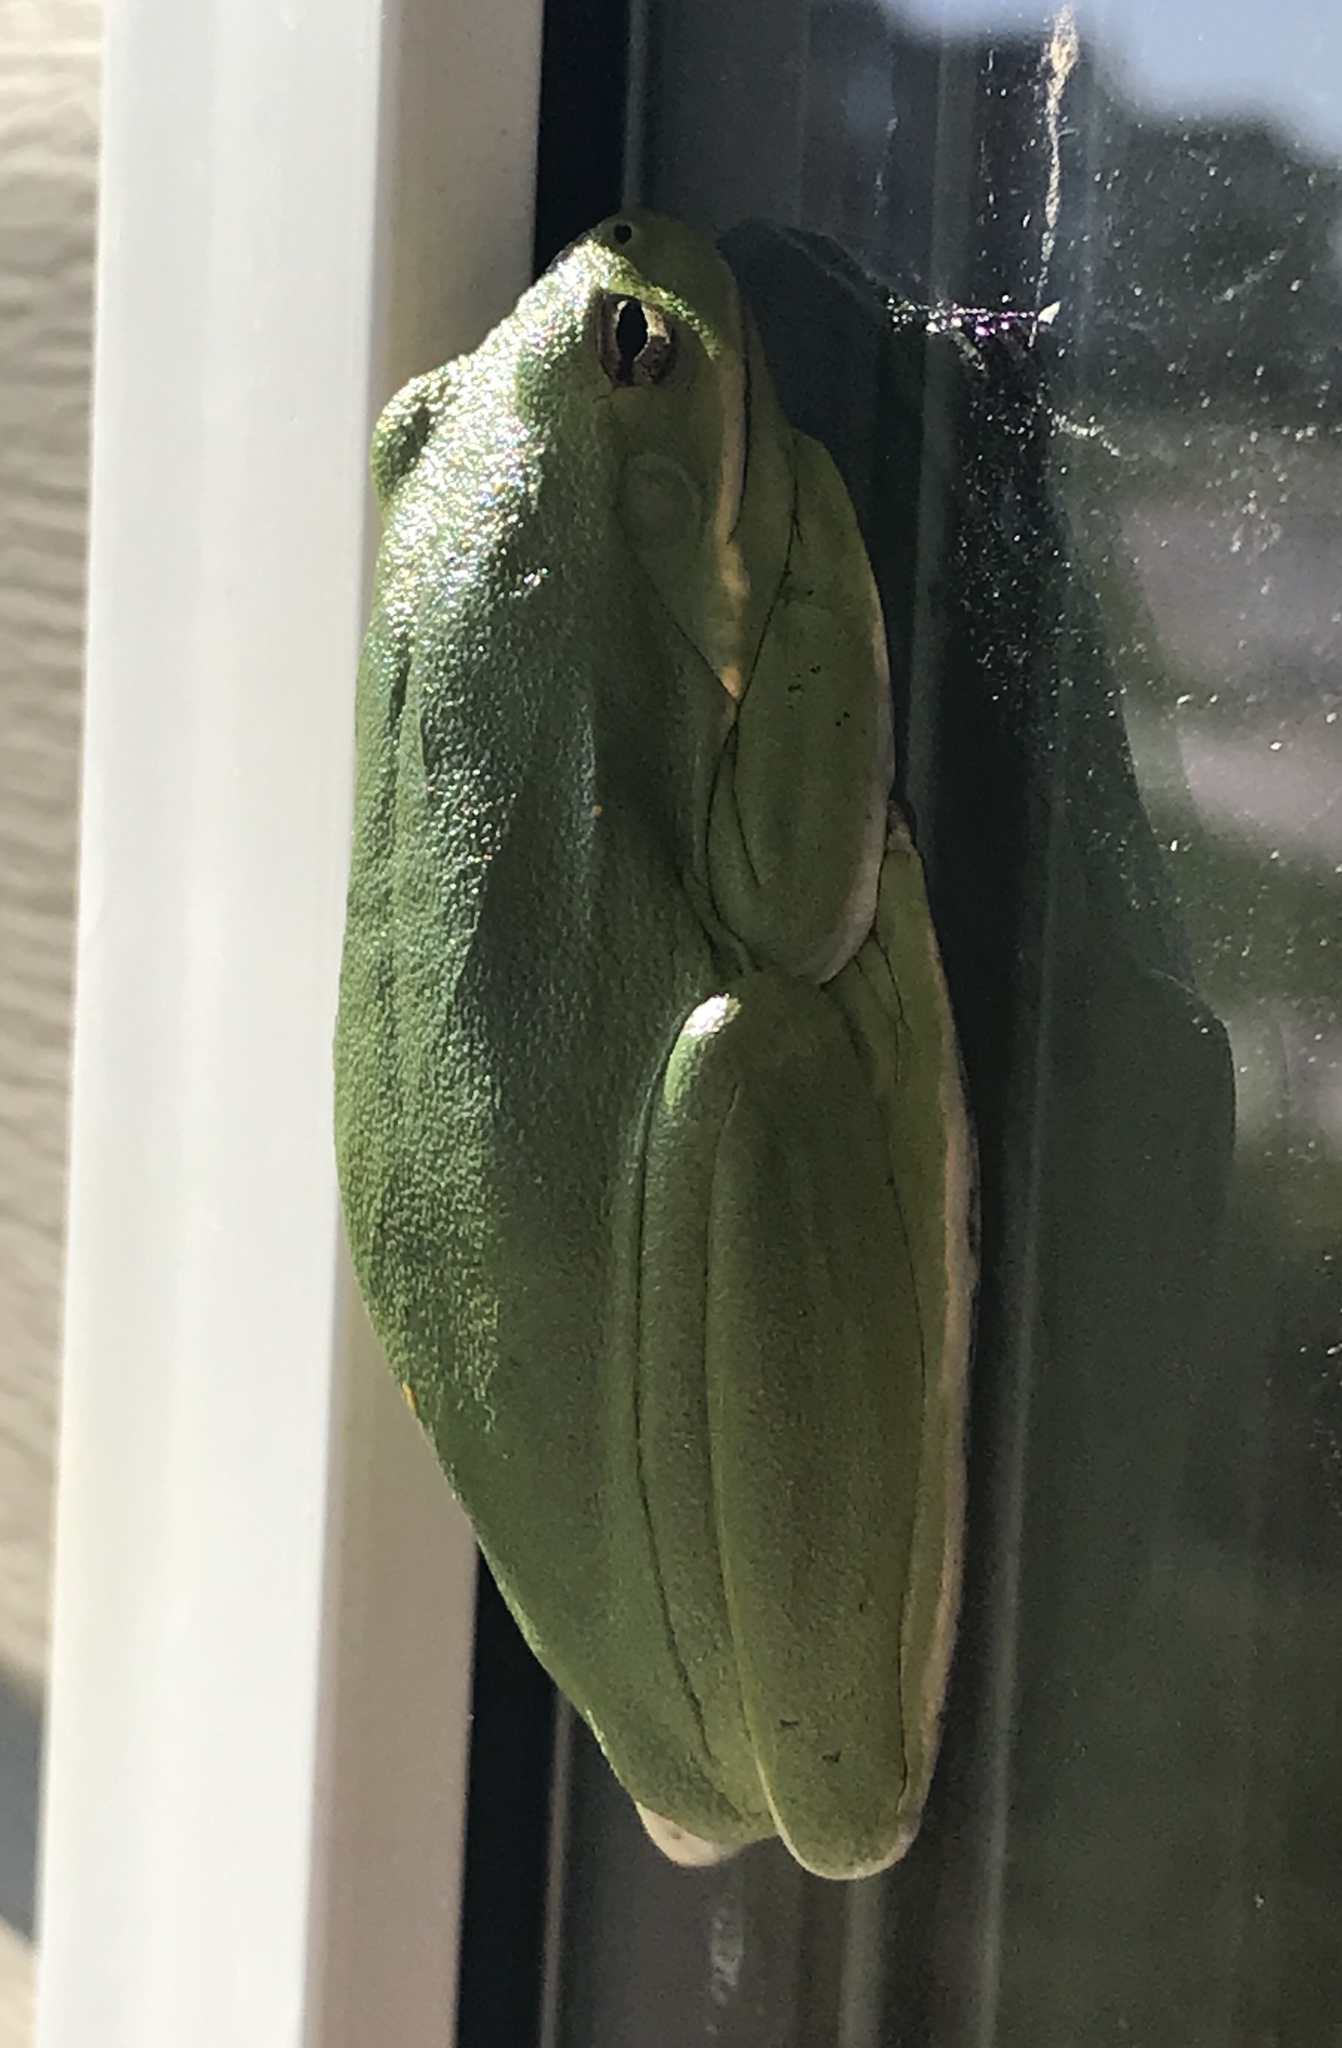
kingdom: Animalia
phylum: Chordata
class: Amphibia
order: Anura
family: Hylidae
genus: Dryophytes
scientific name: Dryophytes cinereus
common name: Green treefrog
